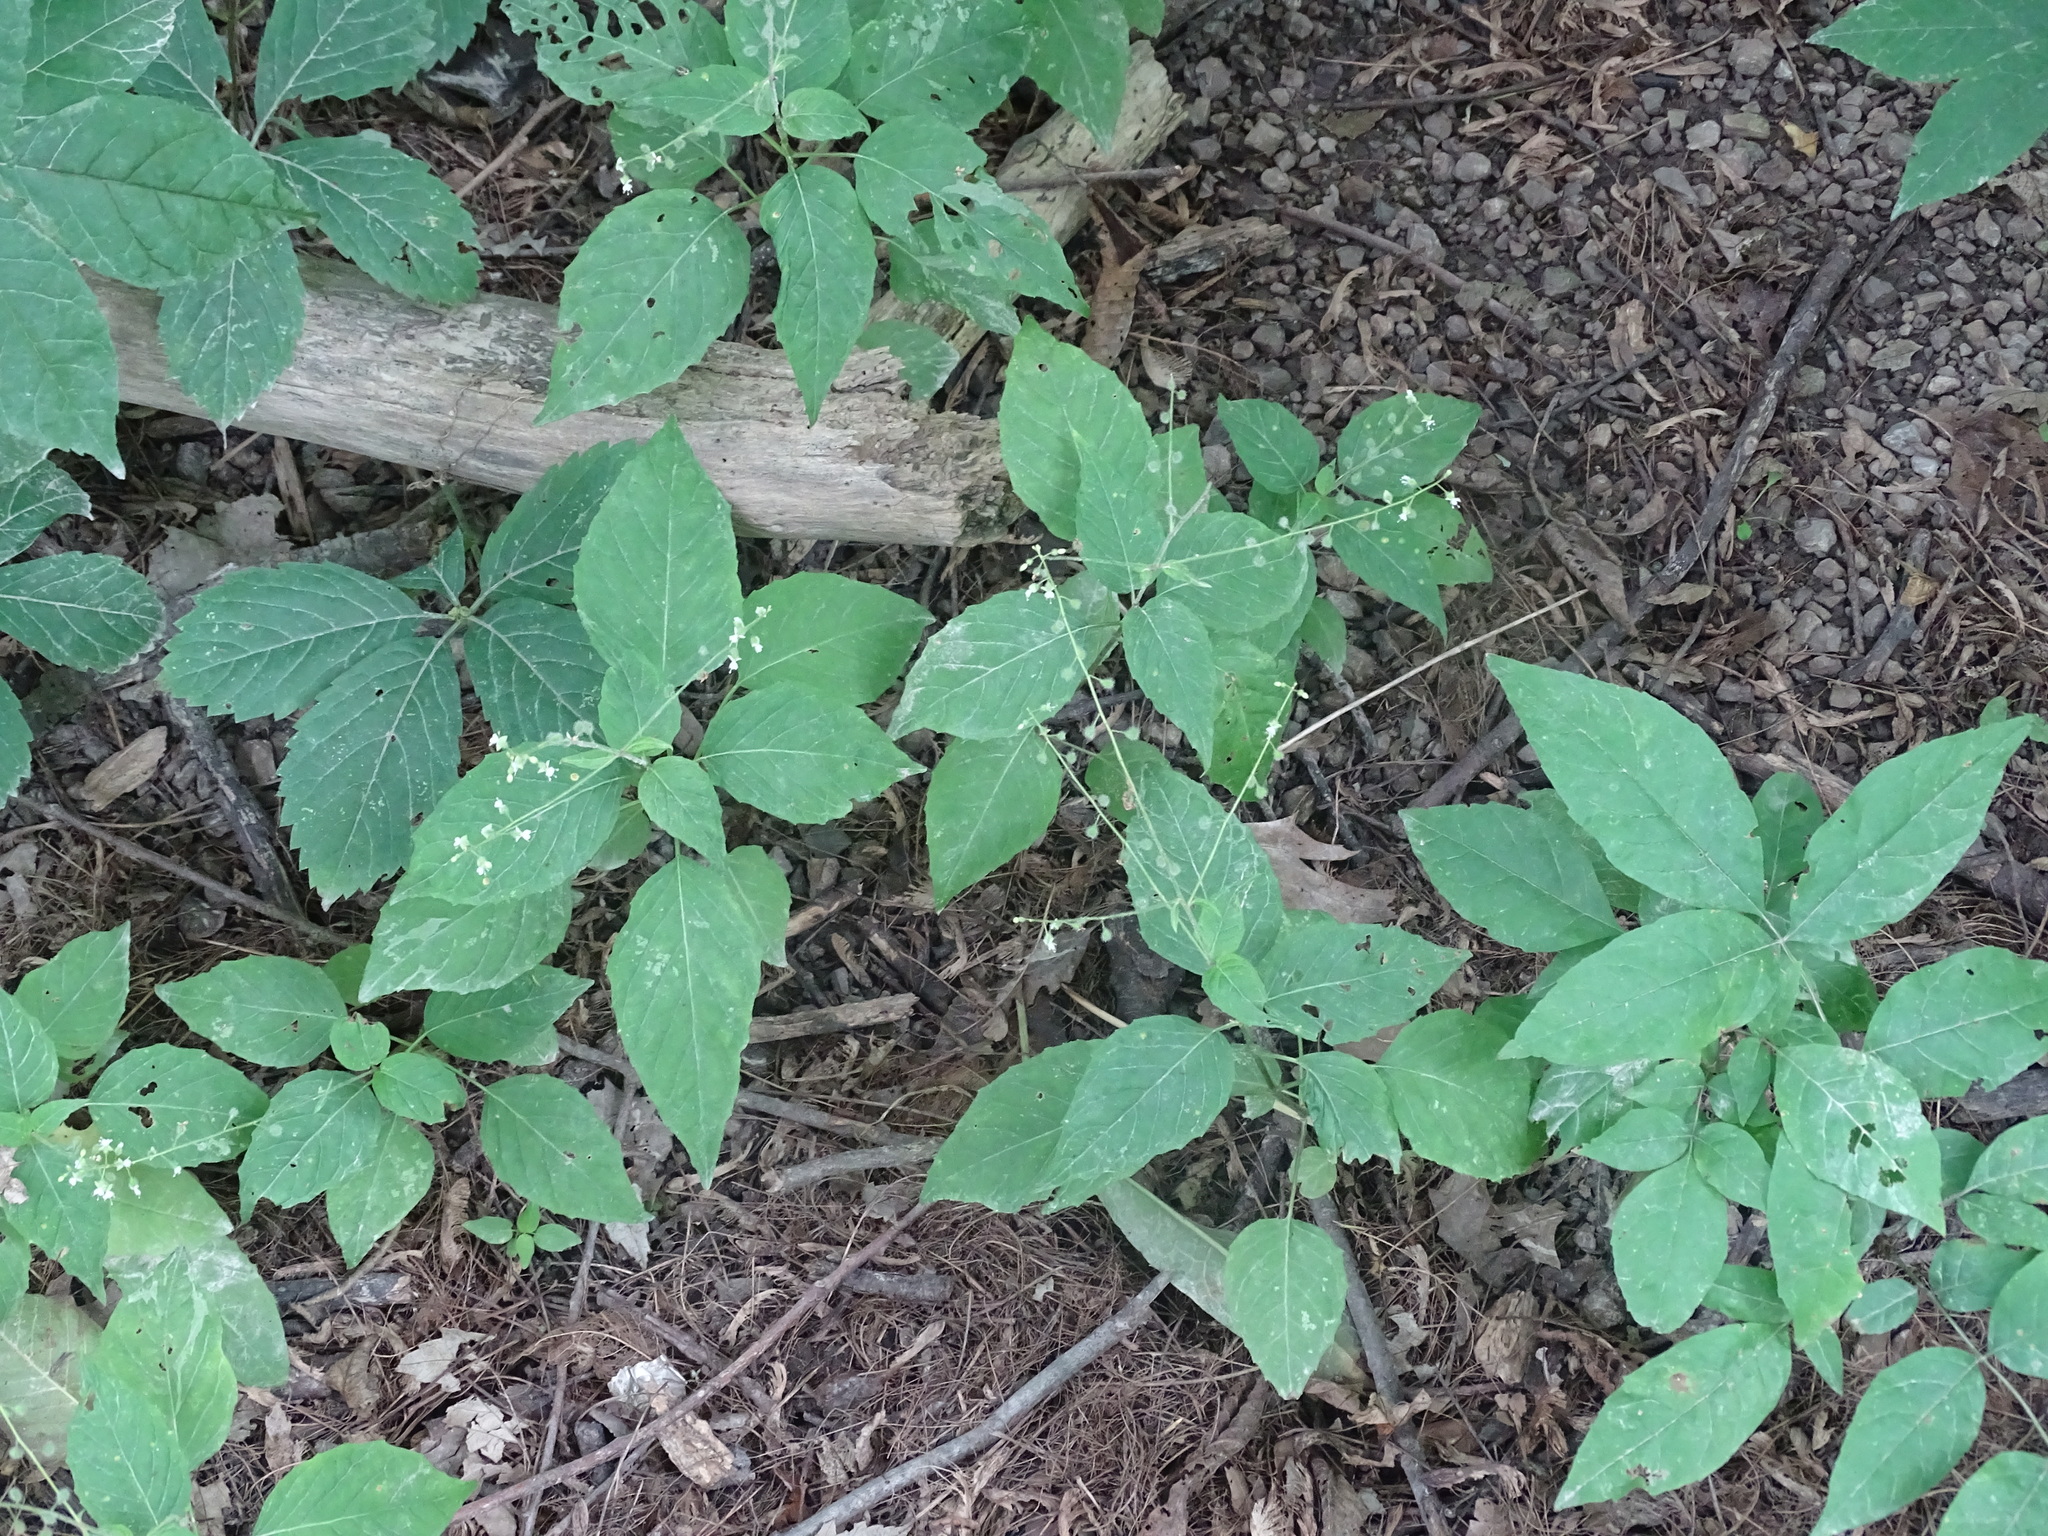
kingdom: Plantae
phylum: Tracheophyta
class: Magnoliopsida
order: Myrtales
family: Onagraceae
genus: Circaea
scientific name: Circaea canadensis
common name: Broad-leaved enchanter's nightshade
